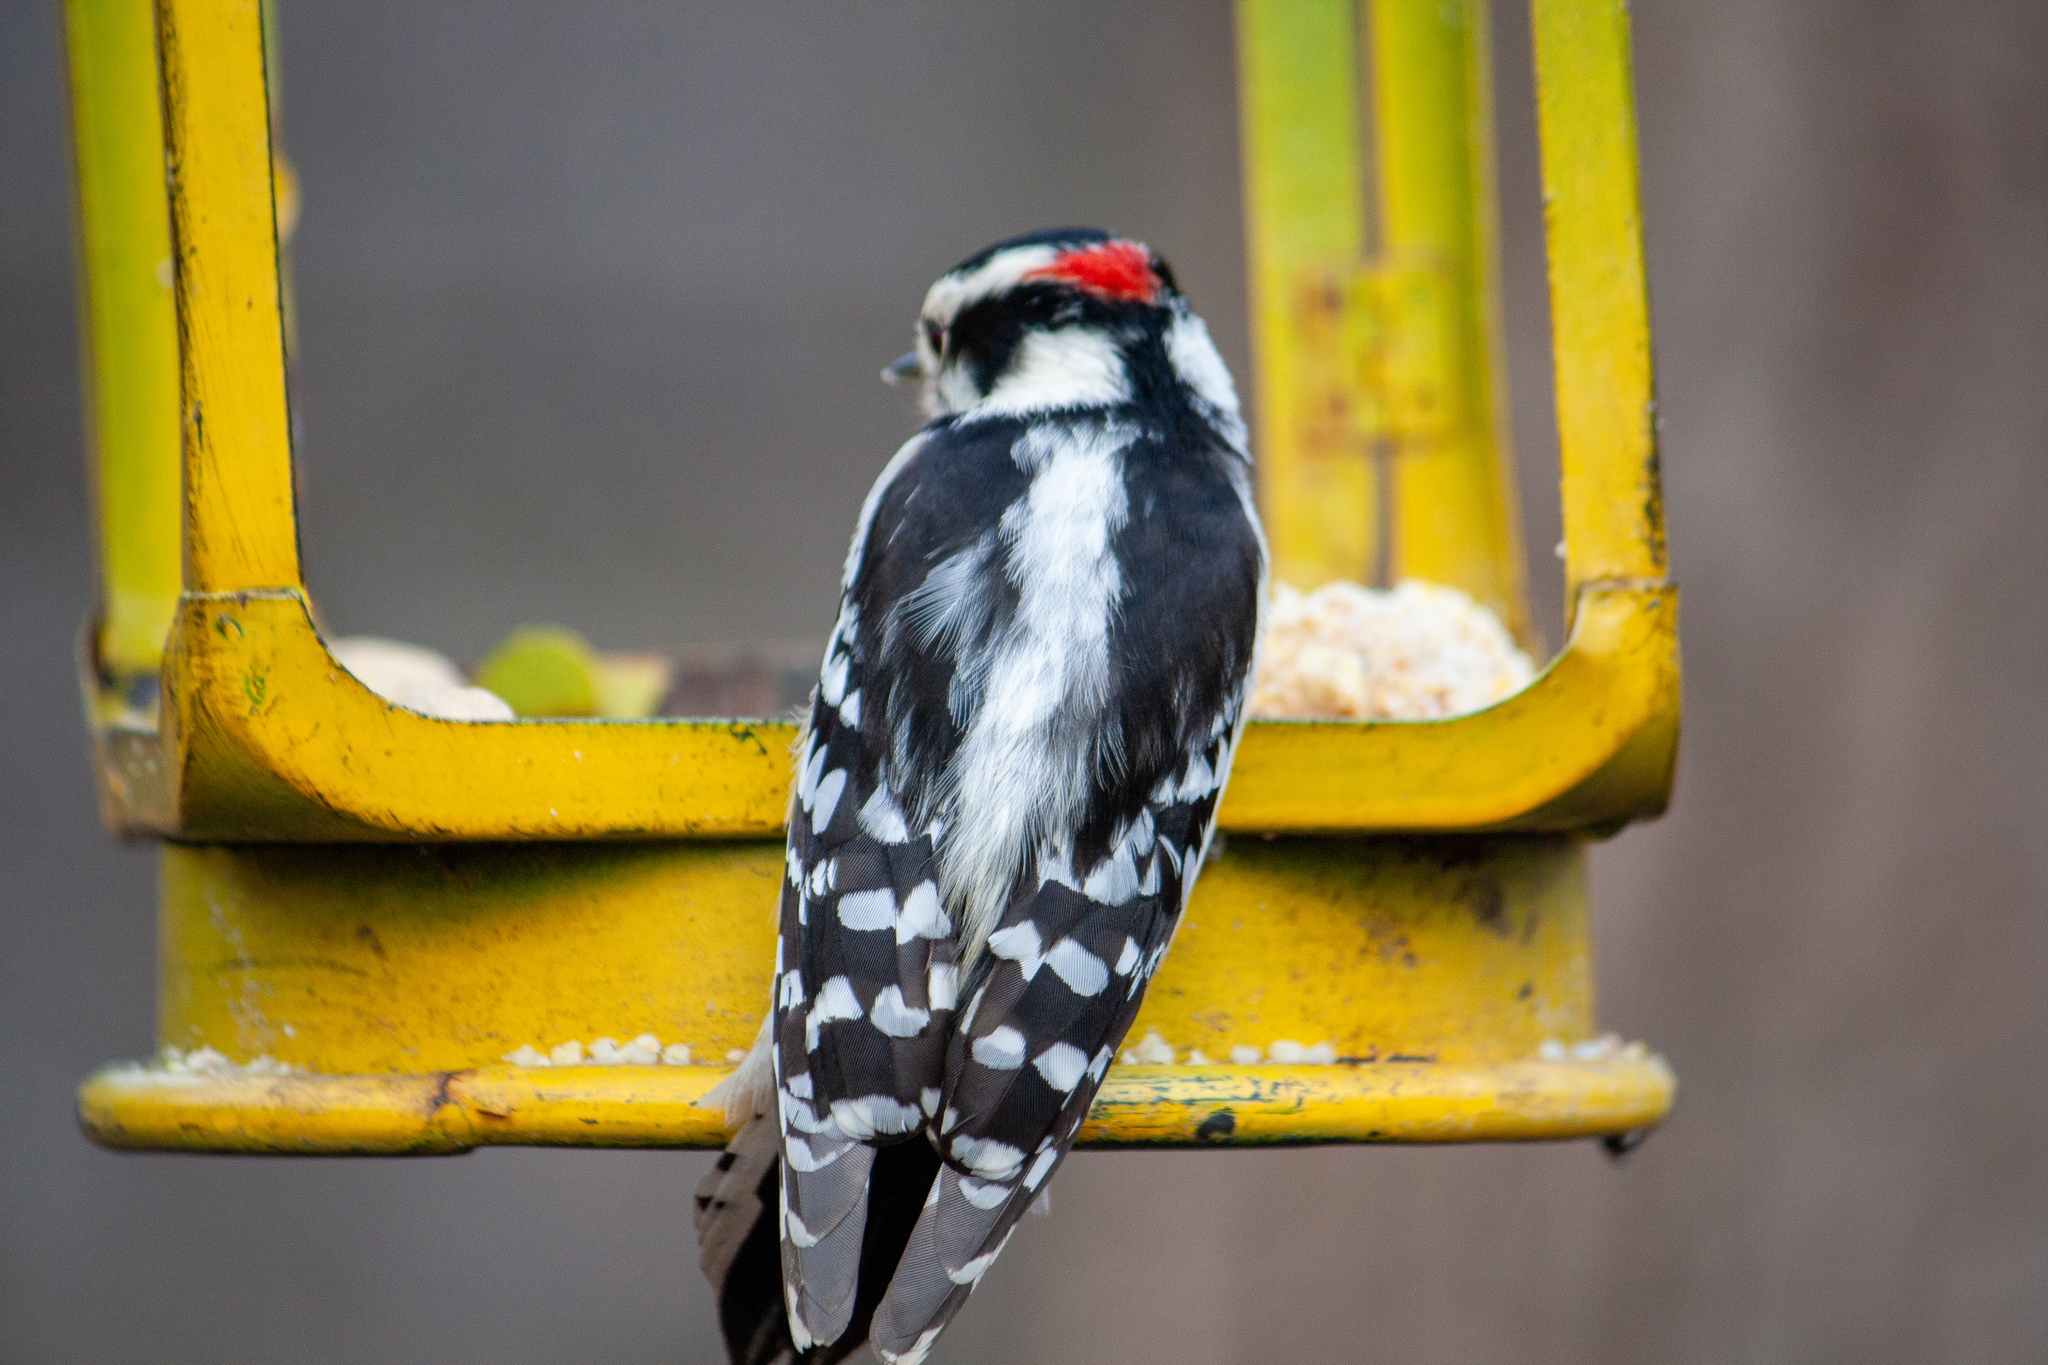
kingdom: Animalia
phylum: Chordata
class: Aves
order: Piciformes
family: Picidae
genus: Dryobates
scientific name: Dryobates pubescens
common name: Downy woodpecker
